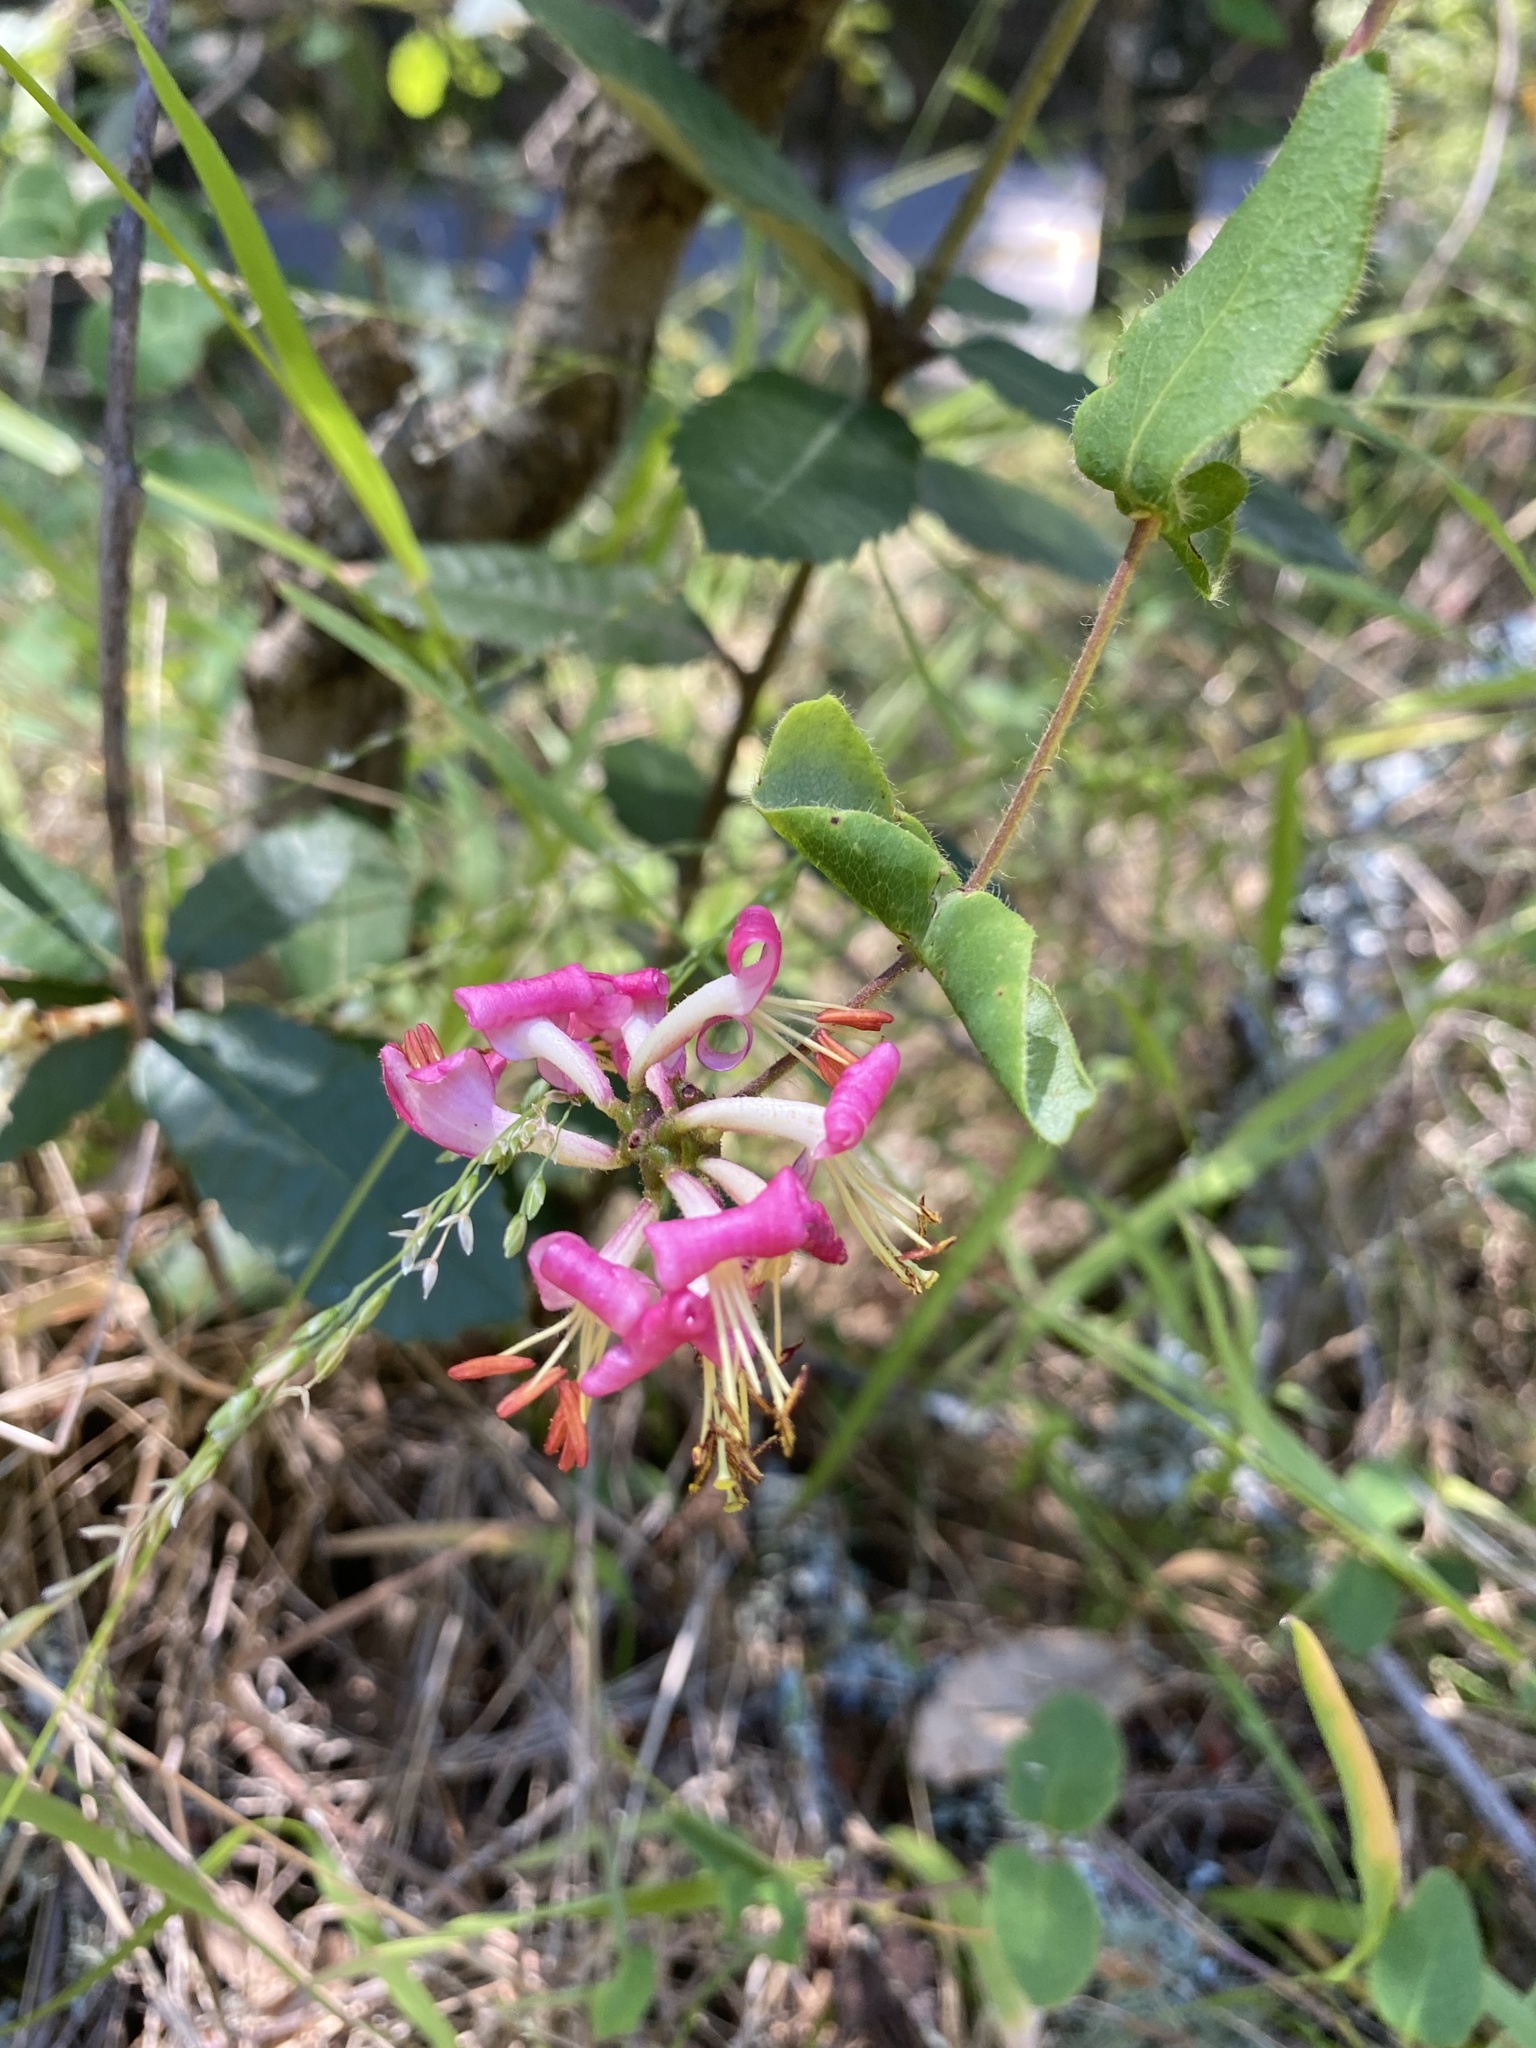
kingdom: Plantae
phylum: Tracheophyta
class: Magnoliopsida
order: Dipsacales
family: Caprifoliaceae
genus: Lonicera
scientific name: Lonicera hispidula
